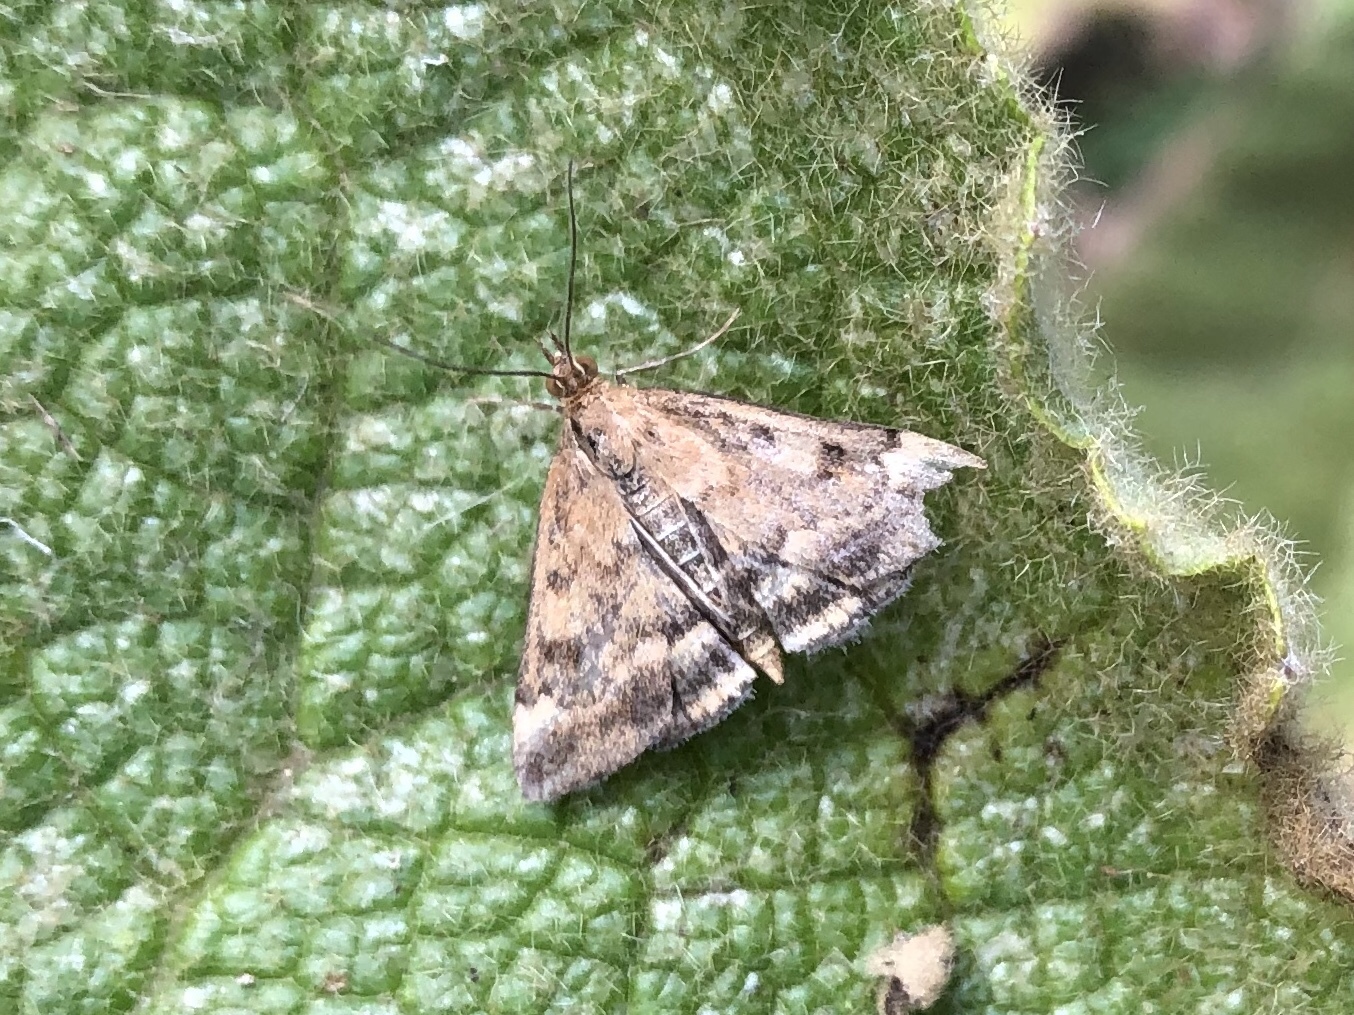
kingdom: Animalia
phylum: Arthropoda
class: Insecta
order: Lepidoptera
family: Crambidae
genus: Pyrausta
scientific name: Pyrausta despicata
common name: Straw-barred pearl
